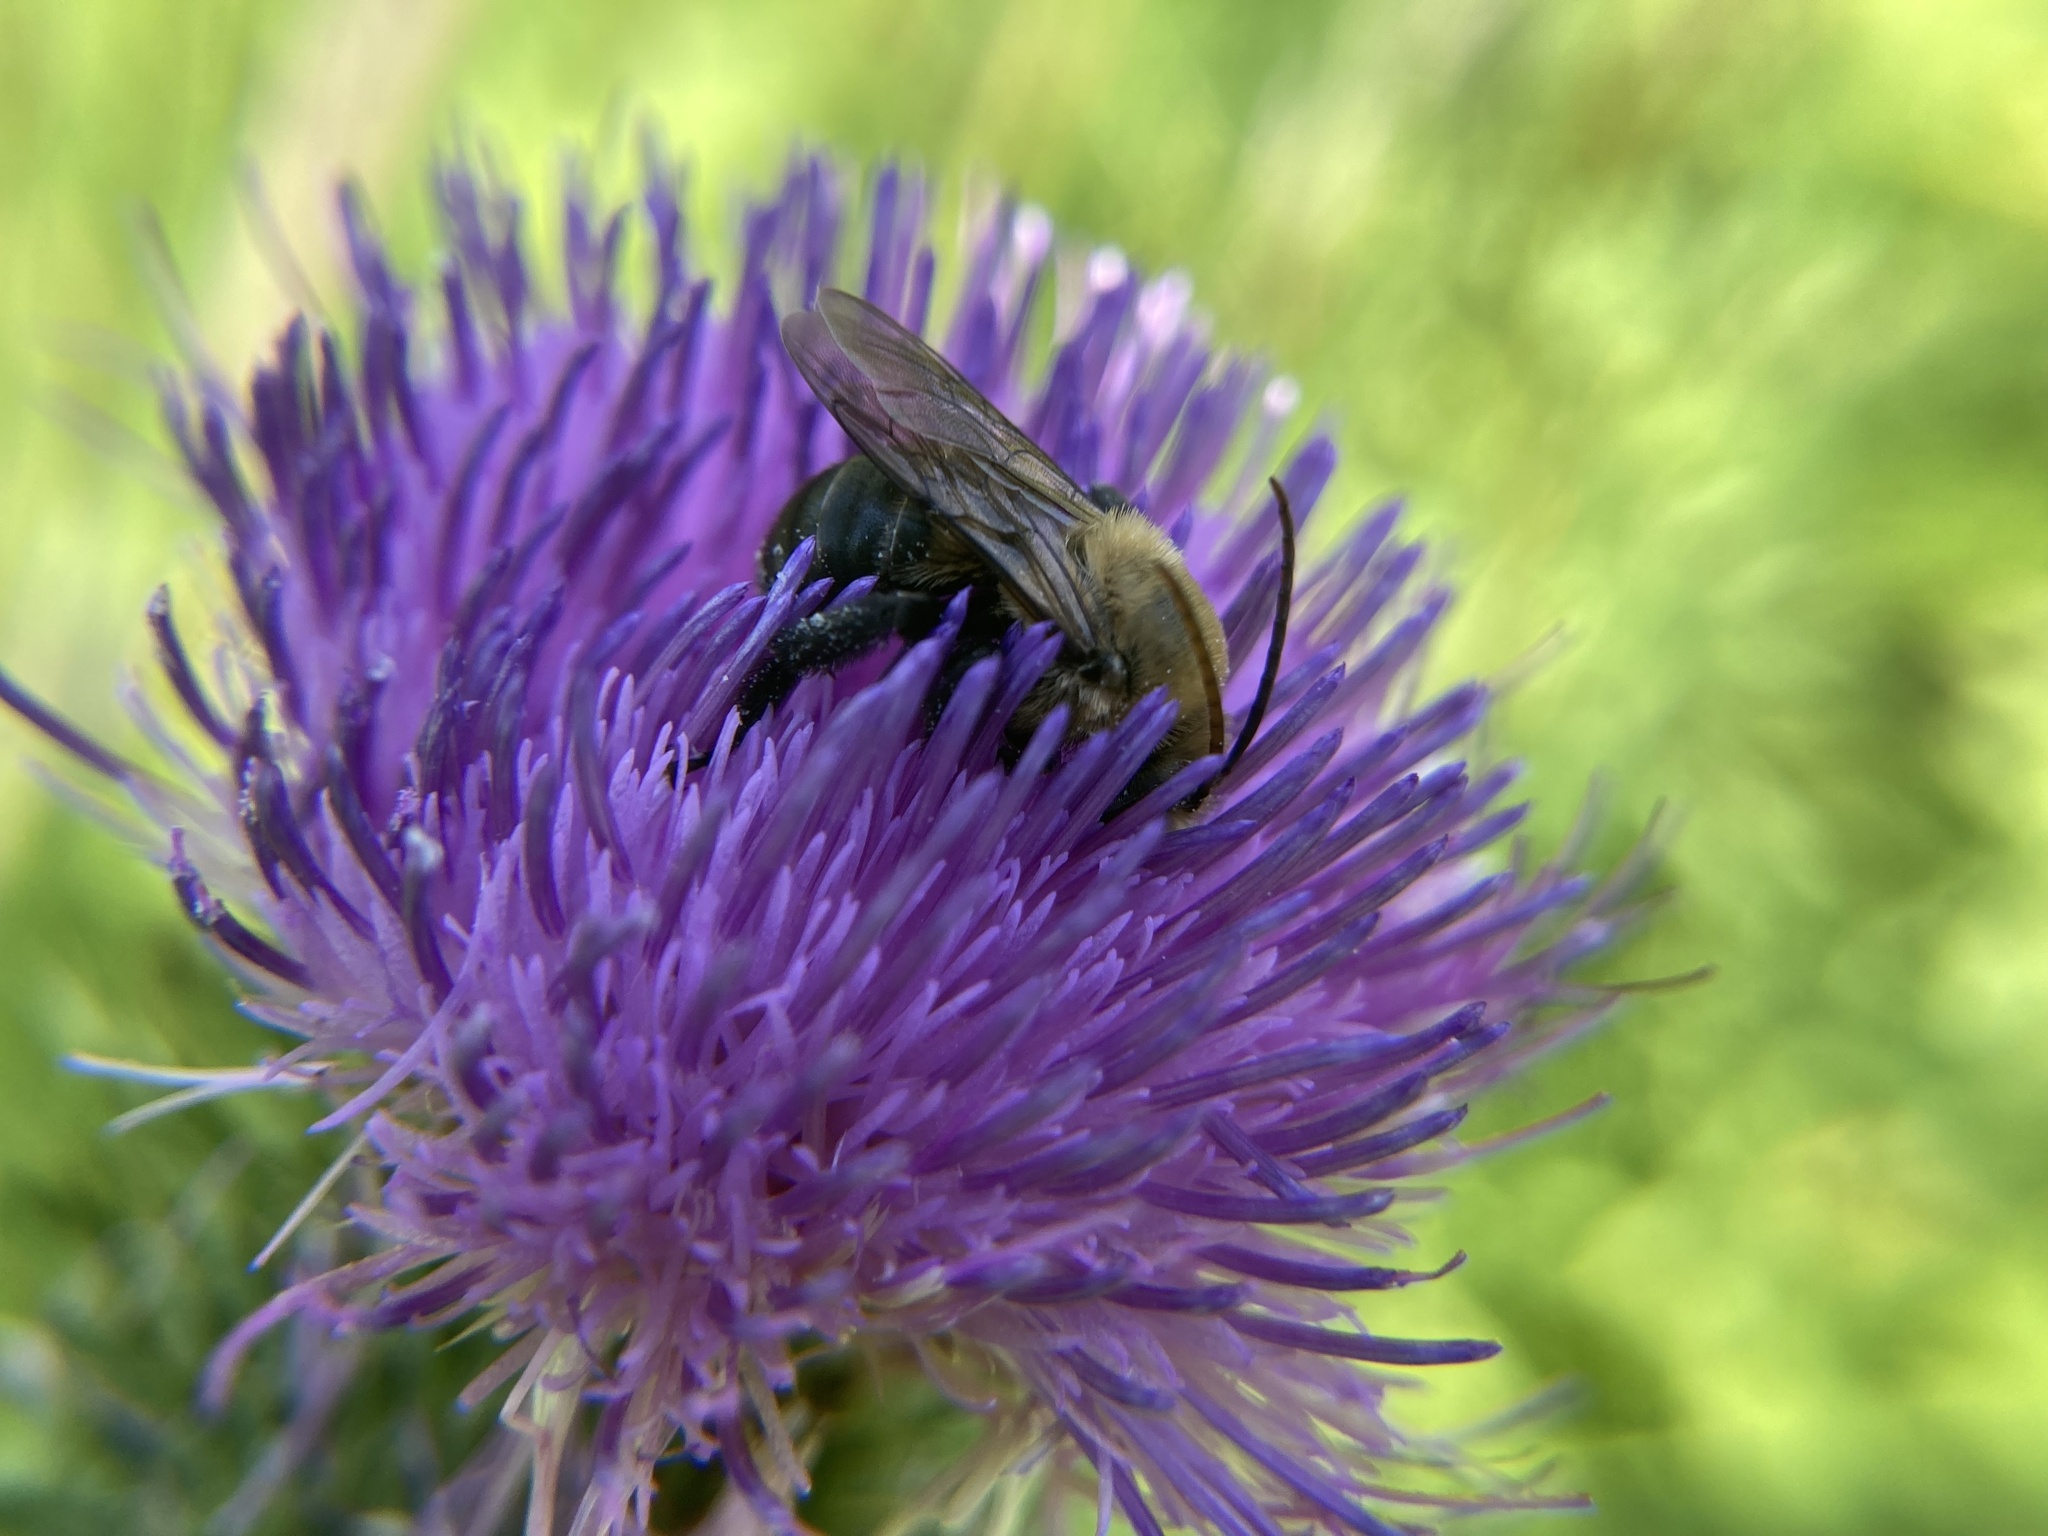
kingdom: Animalia
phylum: Arthropoda
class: Insecta
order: Hymenoptera
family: Apidae
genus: Melissodes
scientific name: Melissodes desponsus
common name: Thistle long-horned bee
